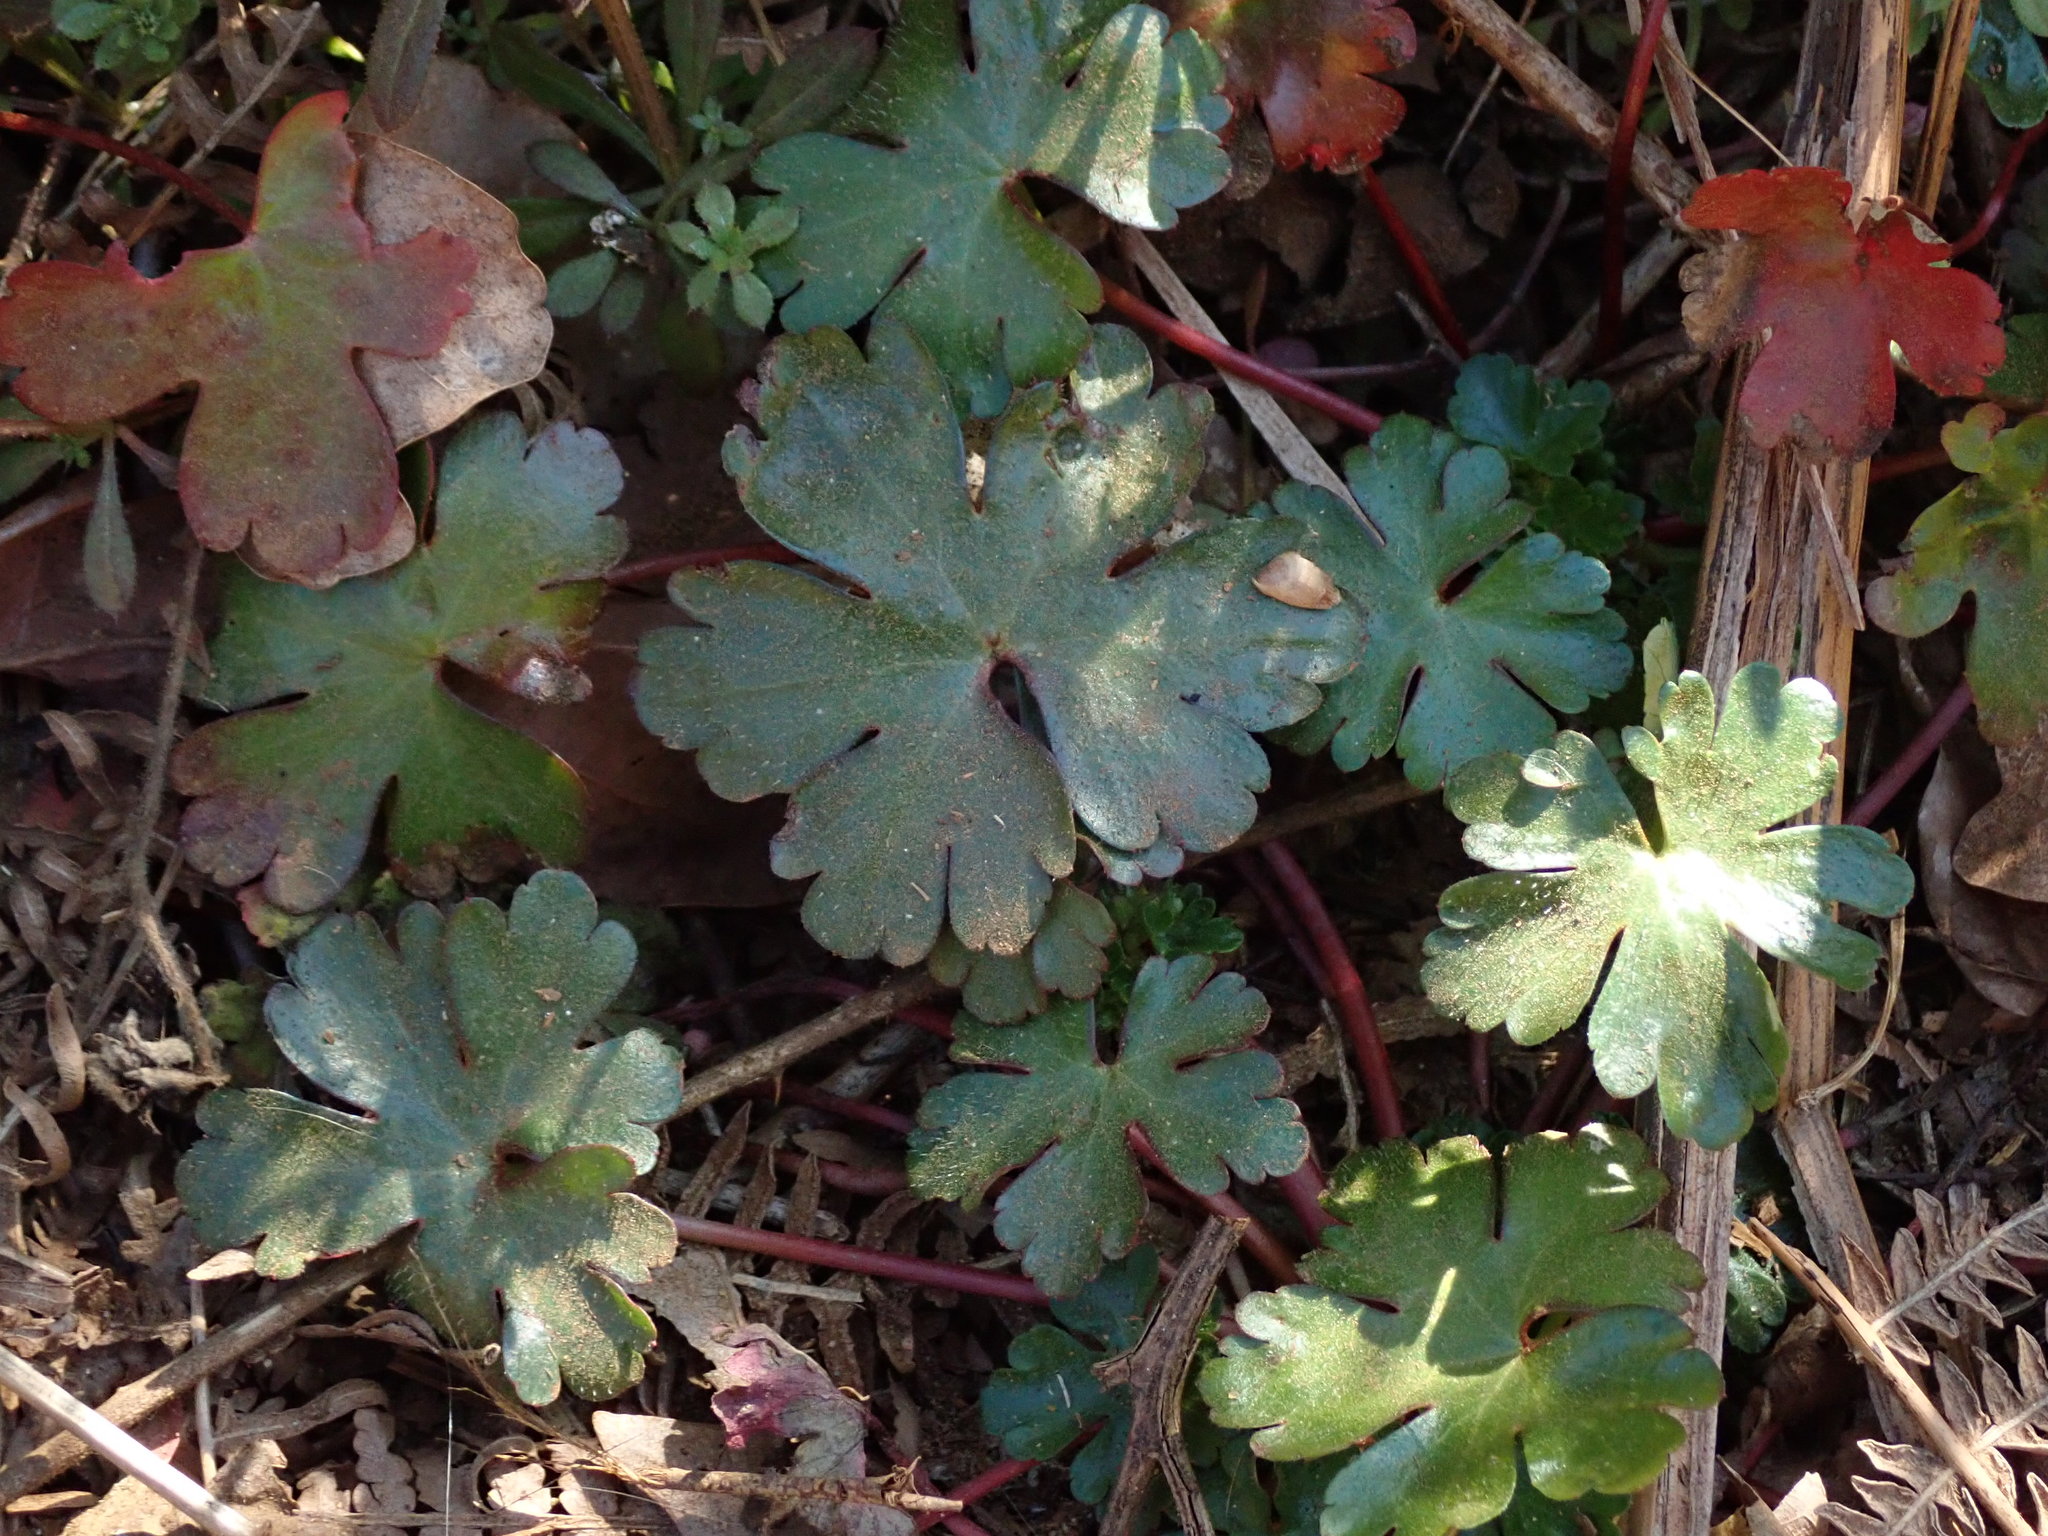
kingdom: Plantae
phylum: Tracheophyta
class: Magnoliopsida
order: Geraniales
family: Geraniaceae
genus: Geranium
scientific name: Geranium lucidum
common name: Shining crane's-bill
